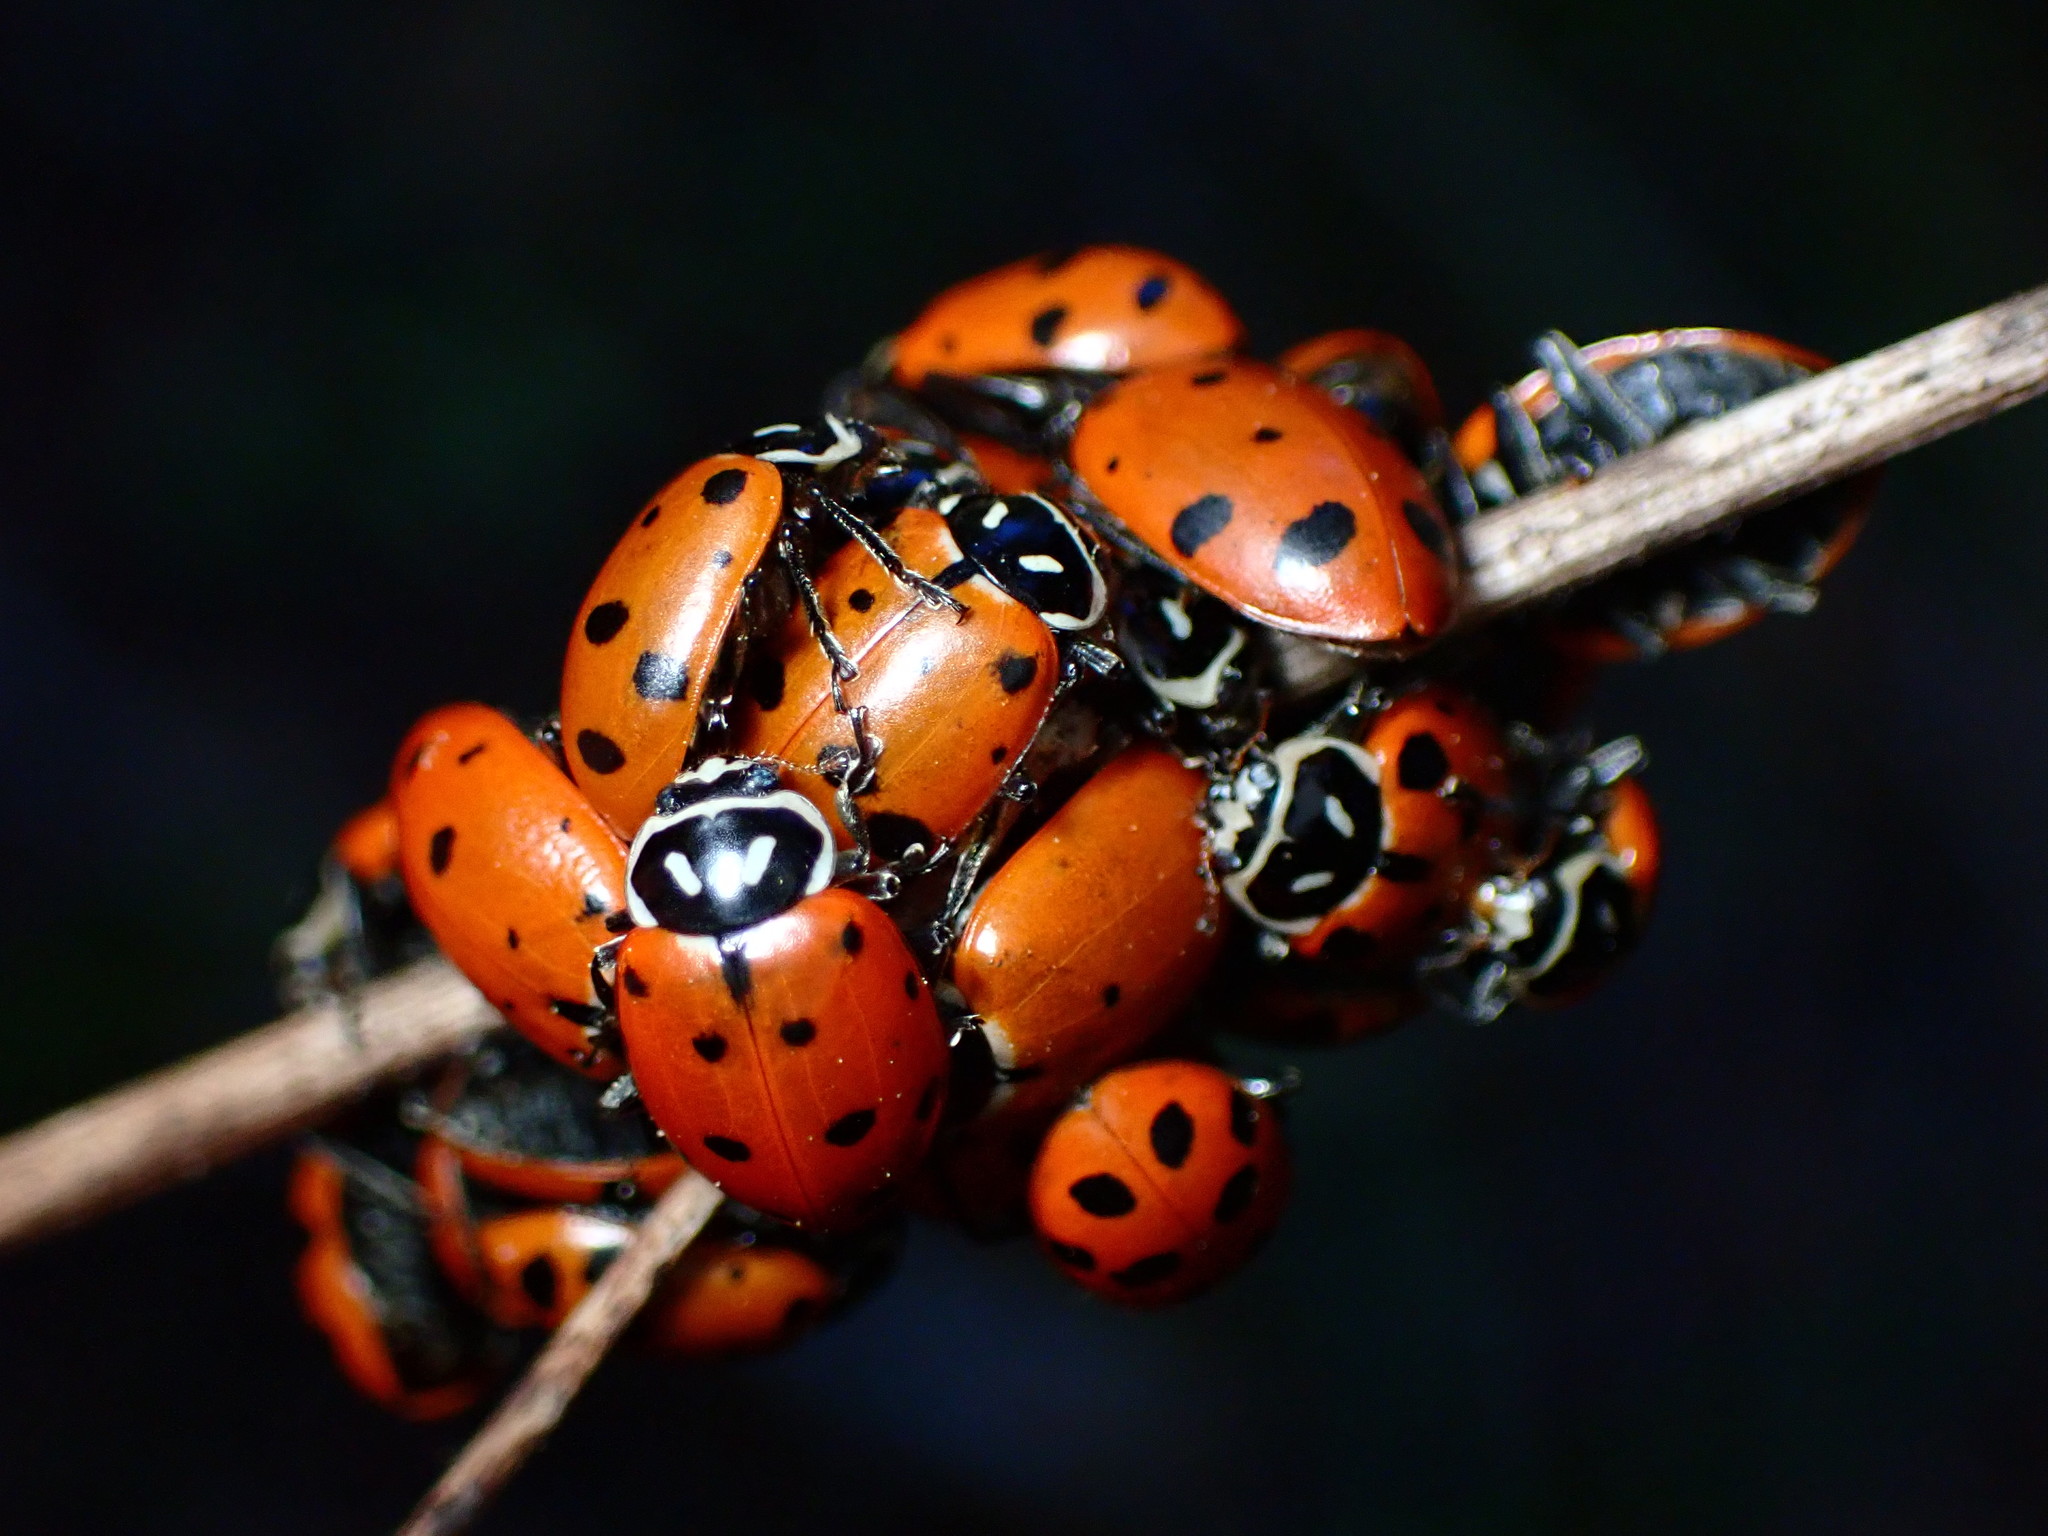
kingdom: Animalia
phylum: Arthropoda
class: Insecta
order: Coleoptera
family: Coccinellidae
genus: Hippodamia
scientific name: Hippodamia convergens
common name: Convergent lady beetle
